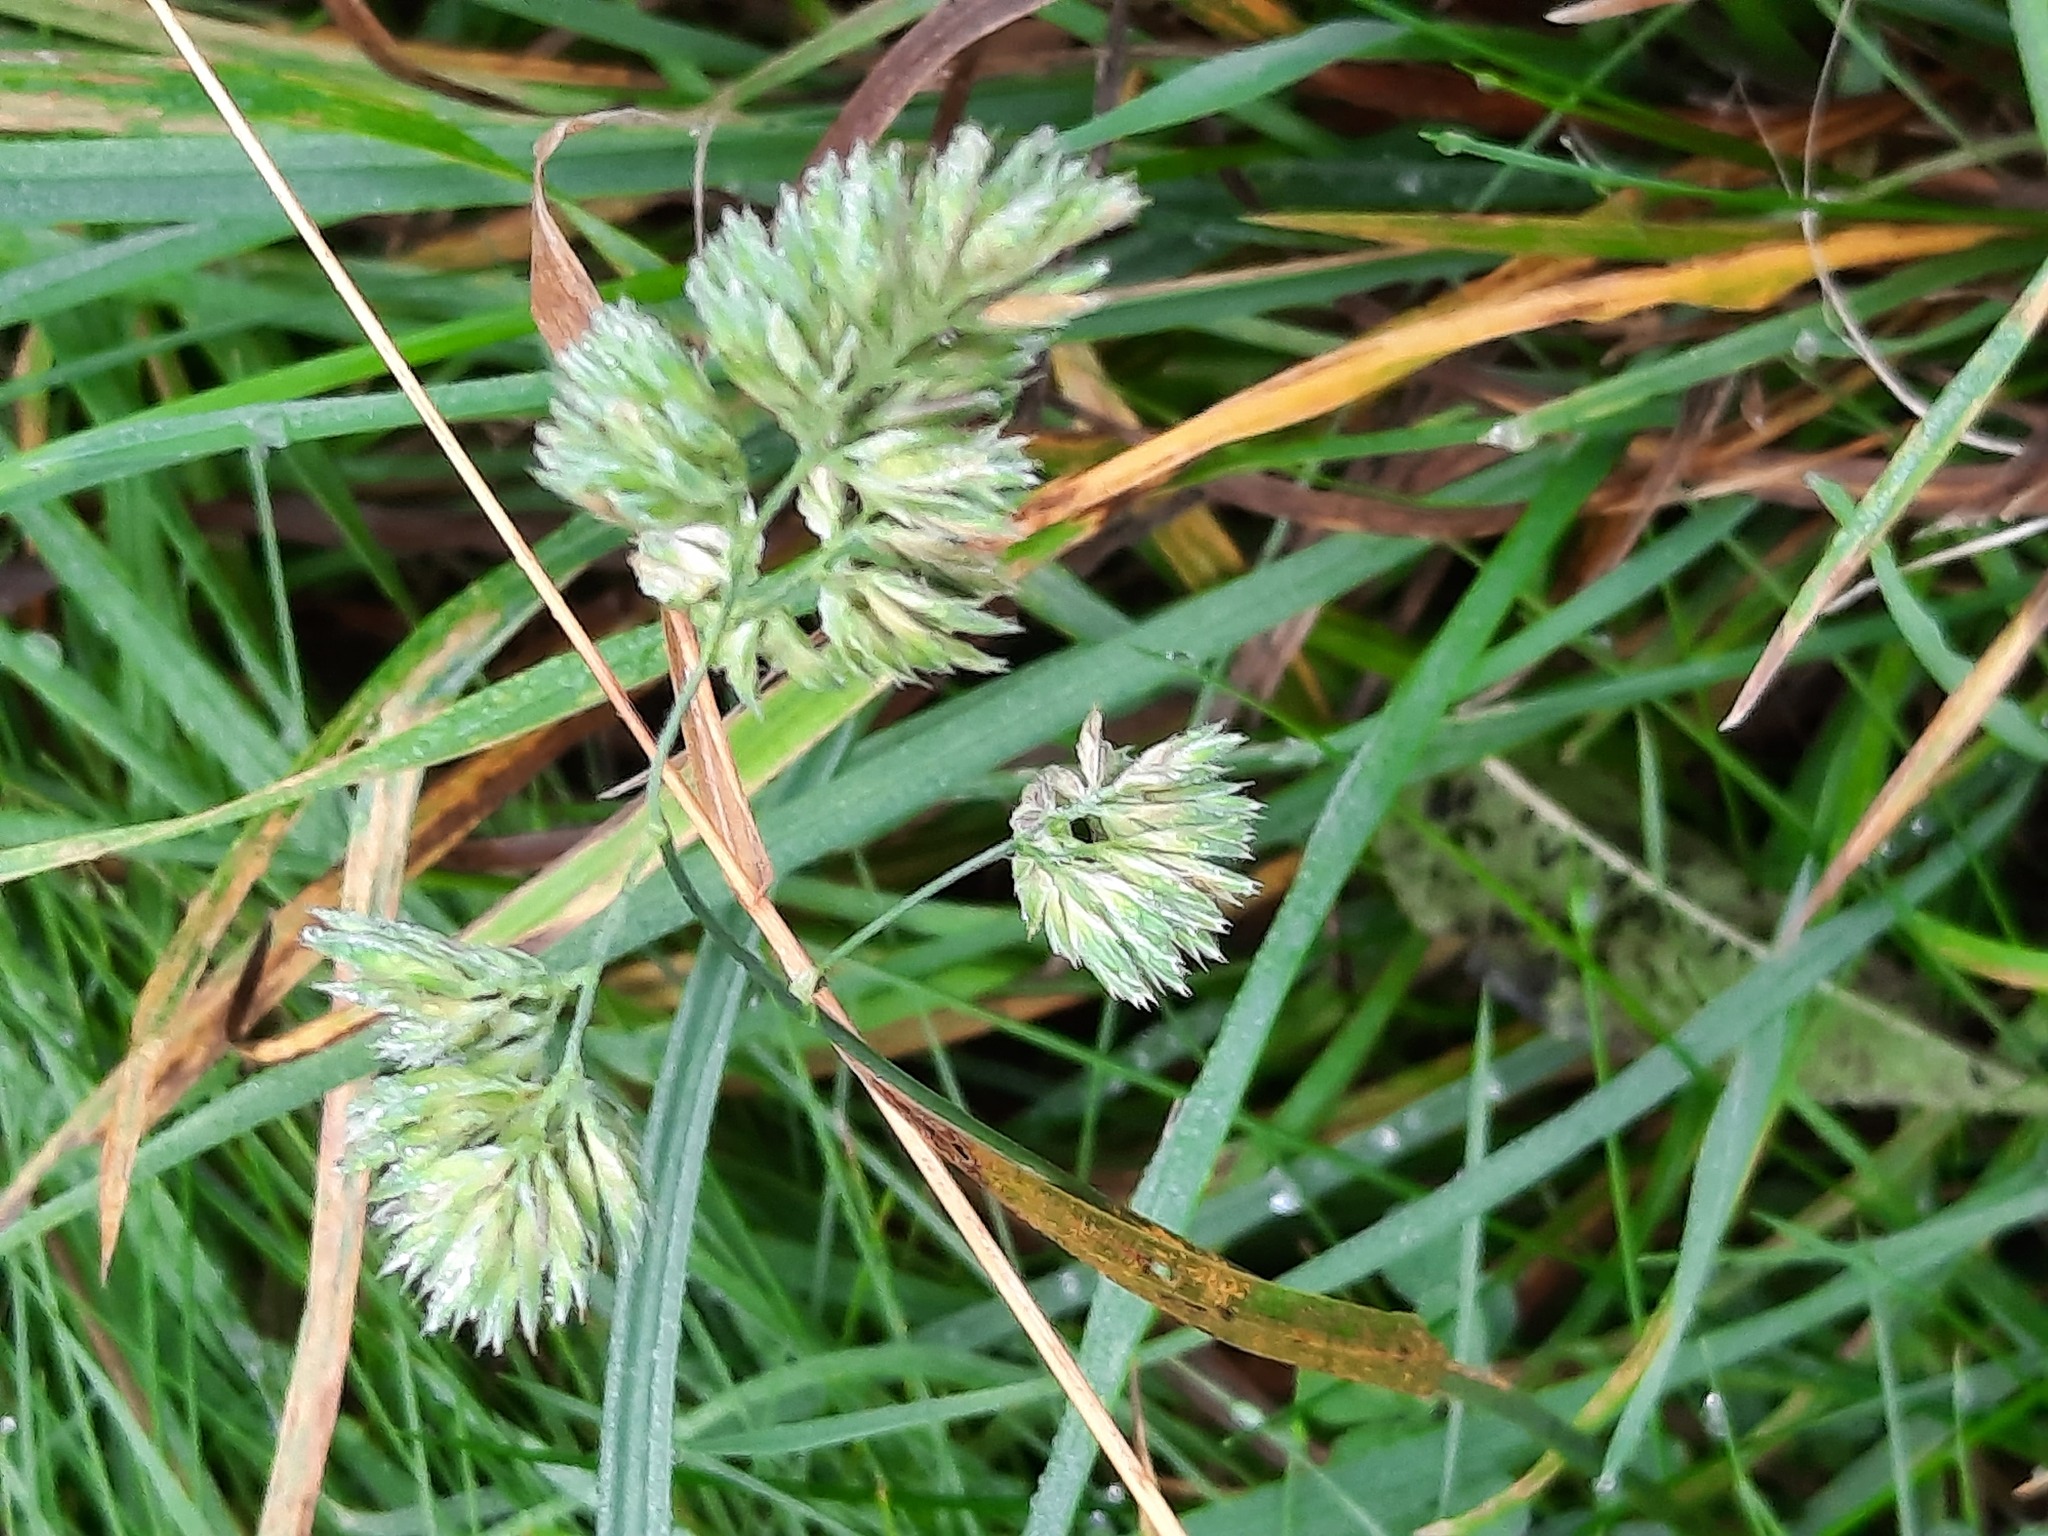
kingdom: Plantae
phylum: Tracheophyta
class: Liliopsida
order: Poales
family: Poaceae
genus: Dactylis
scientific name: Dactylis glomerata
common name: Orchardgrass
